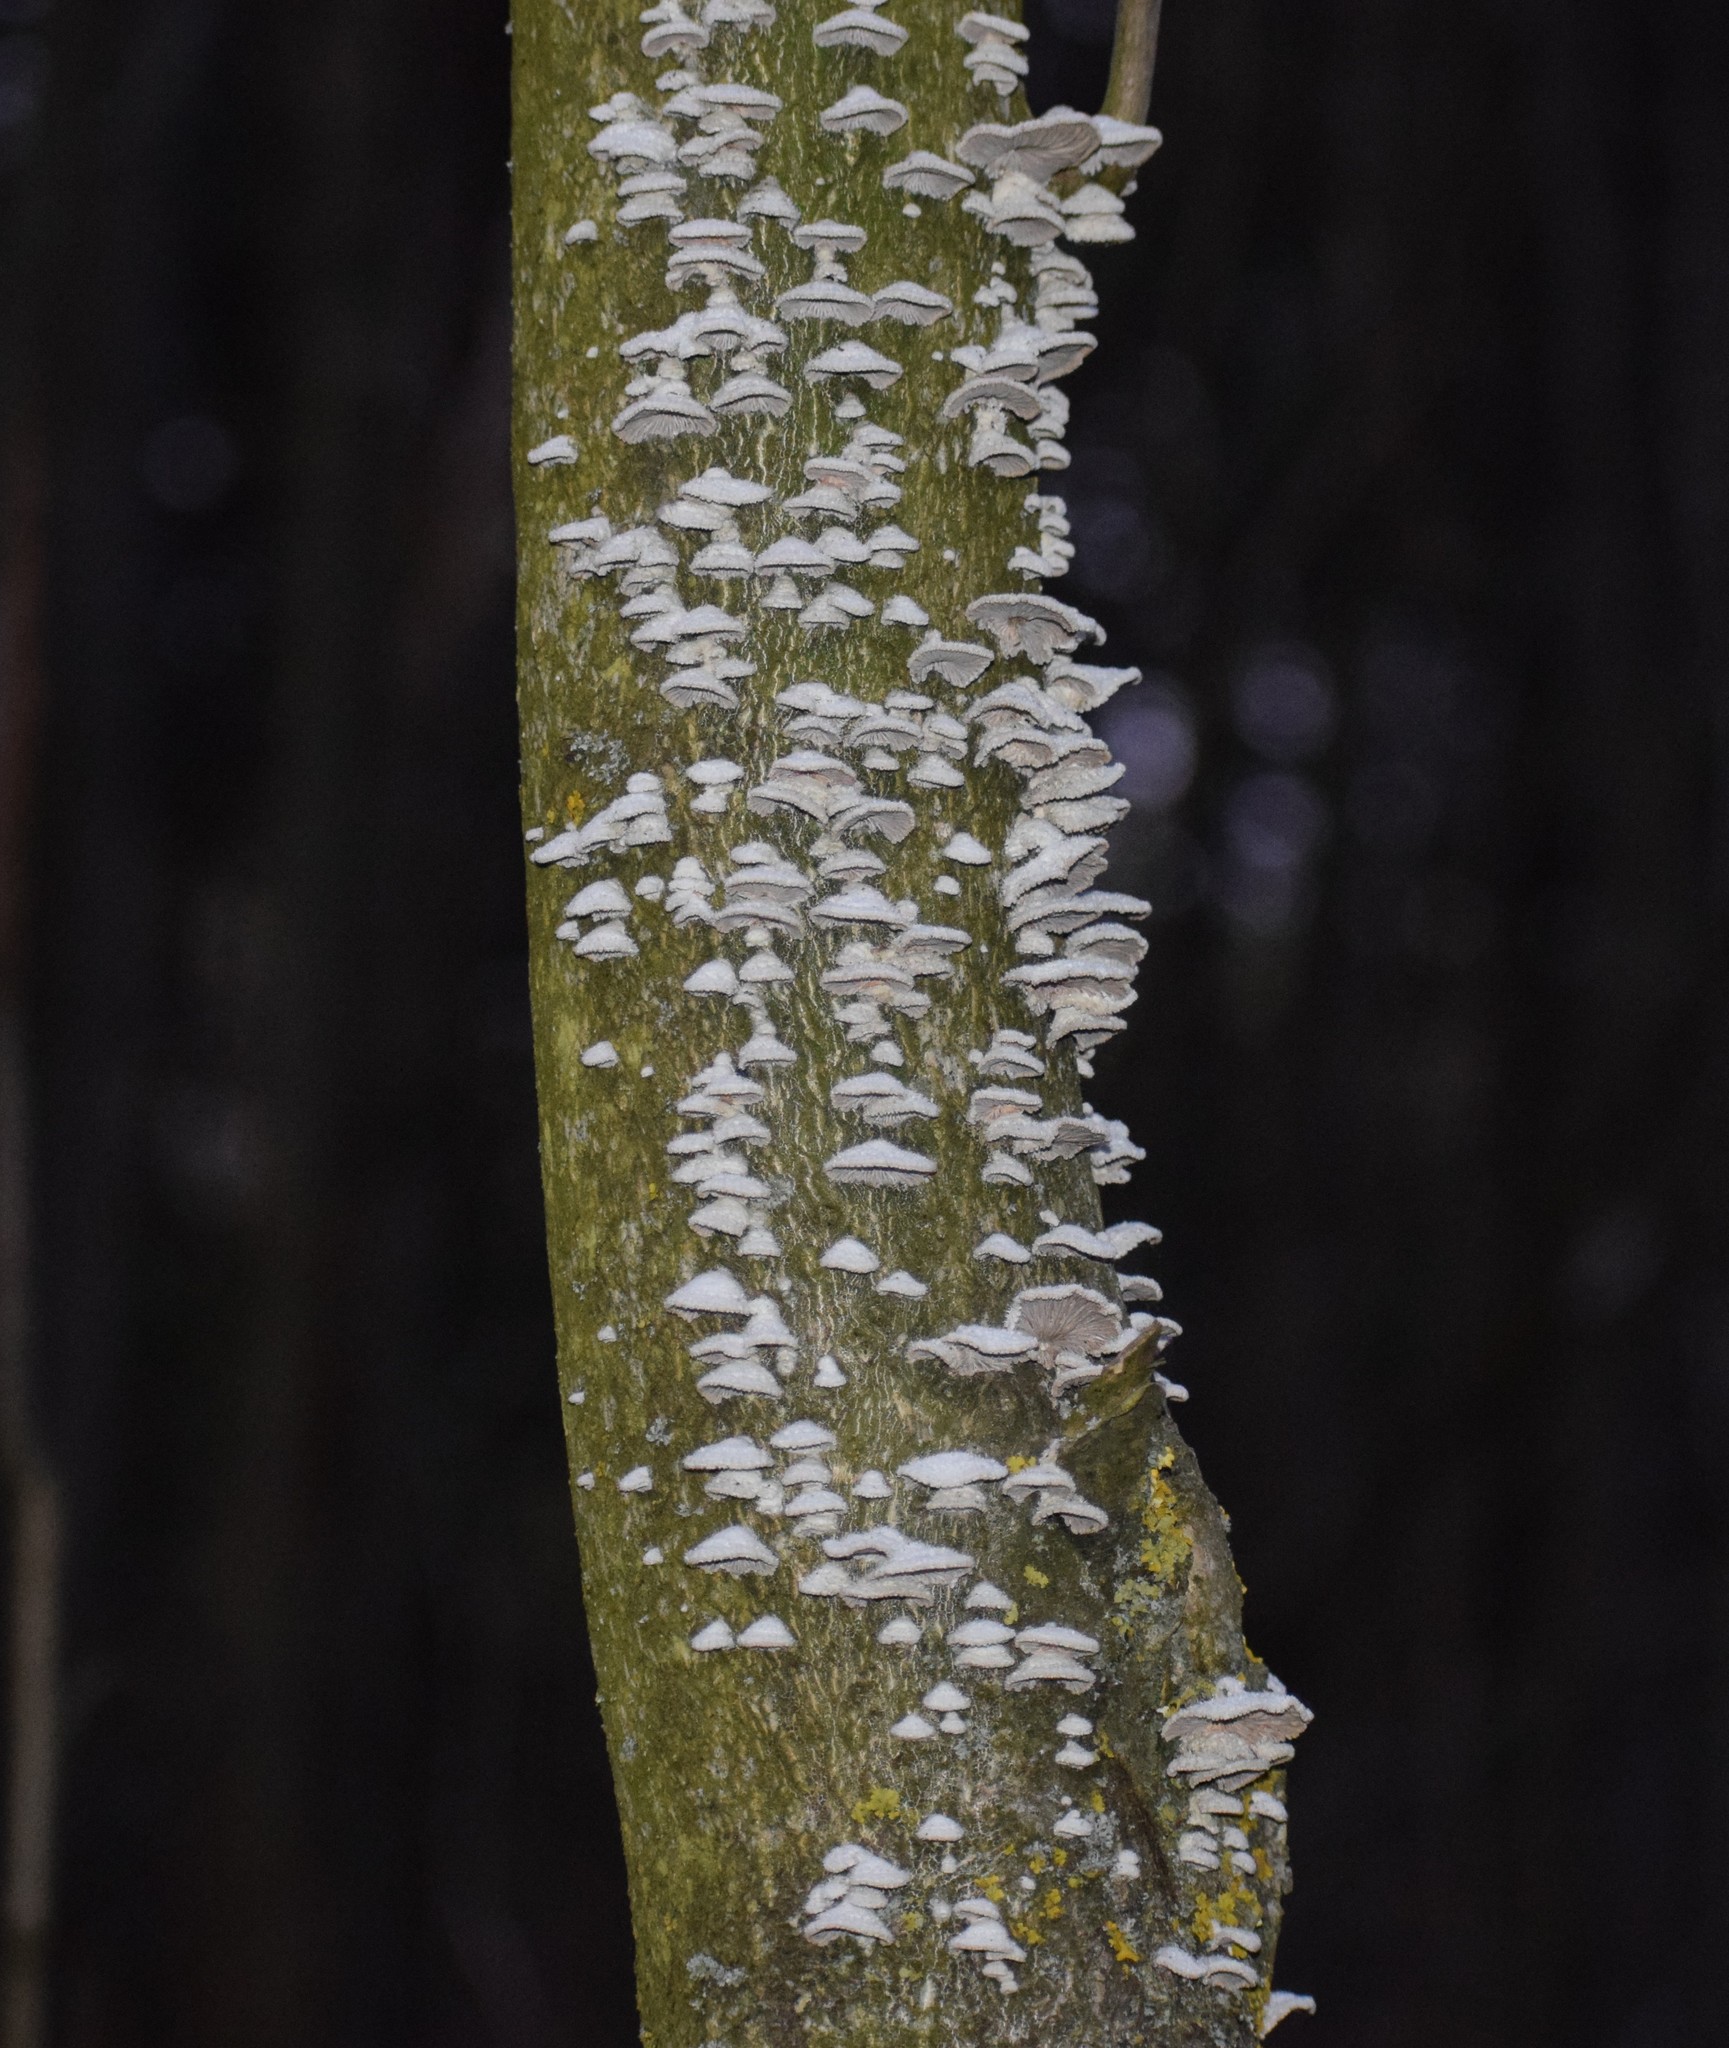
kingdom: Fungi
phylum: Basidiomycota
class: Agaricomycetes
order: Agaricales
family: Schizophyllaceae
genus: Schizophyllum
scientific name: Schizophyllum commune
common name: Common porecrust
